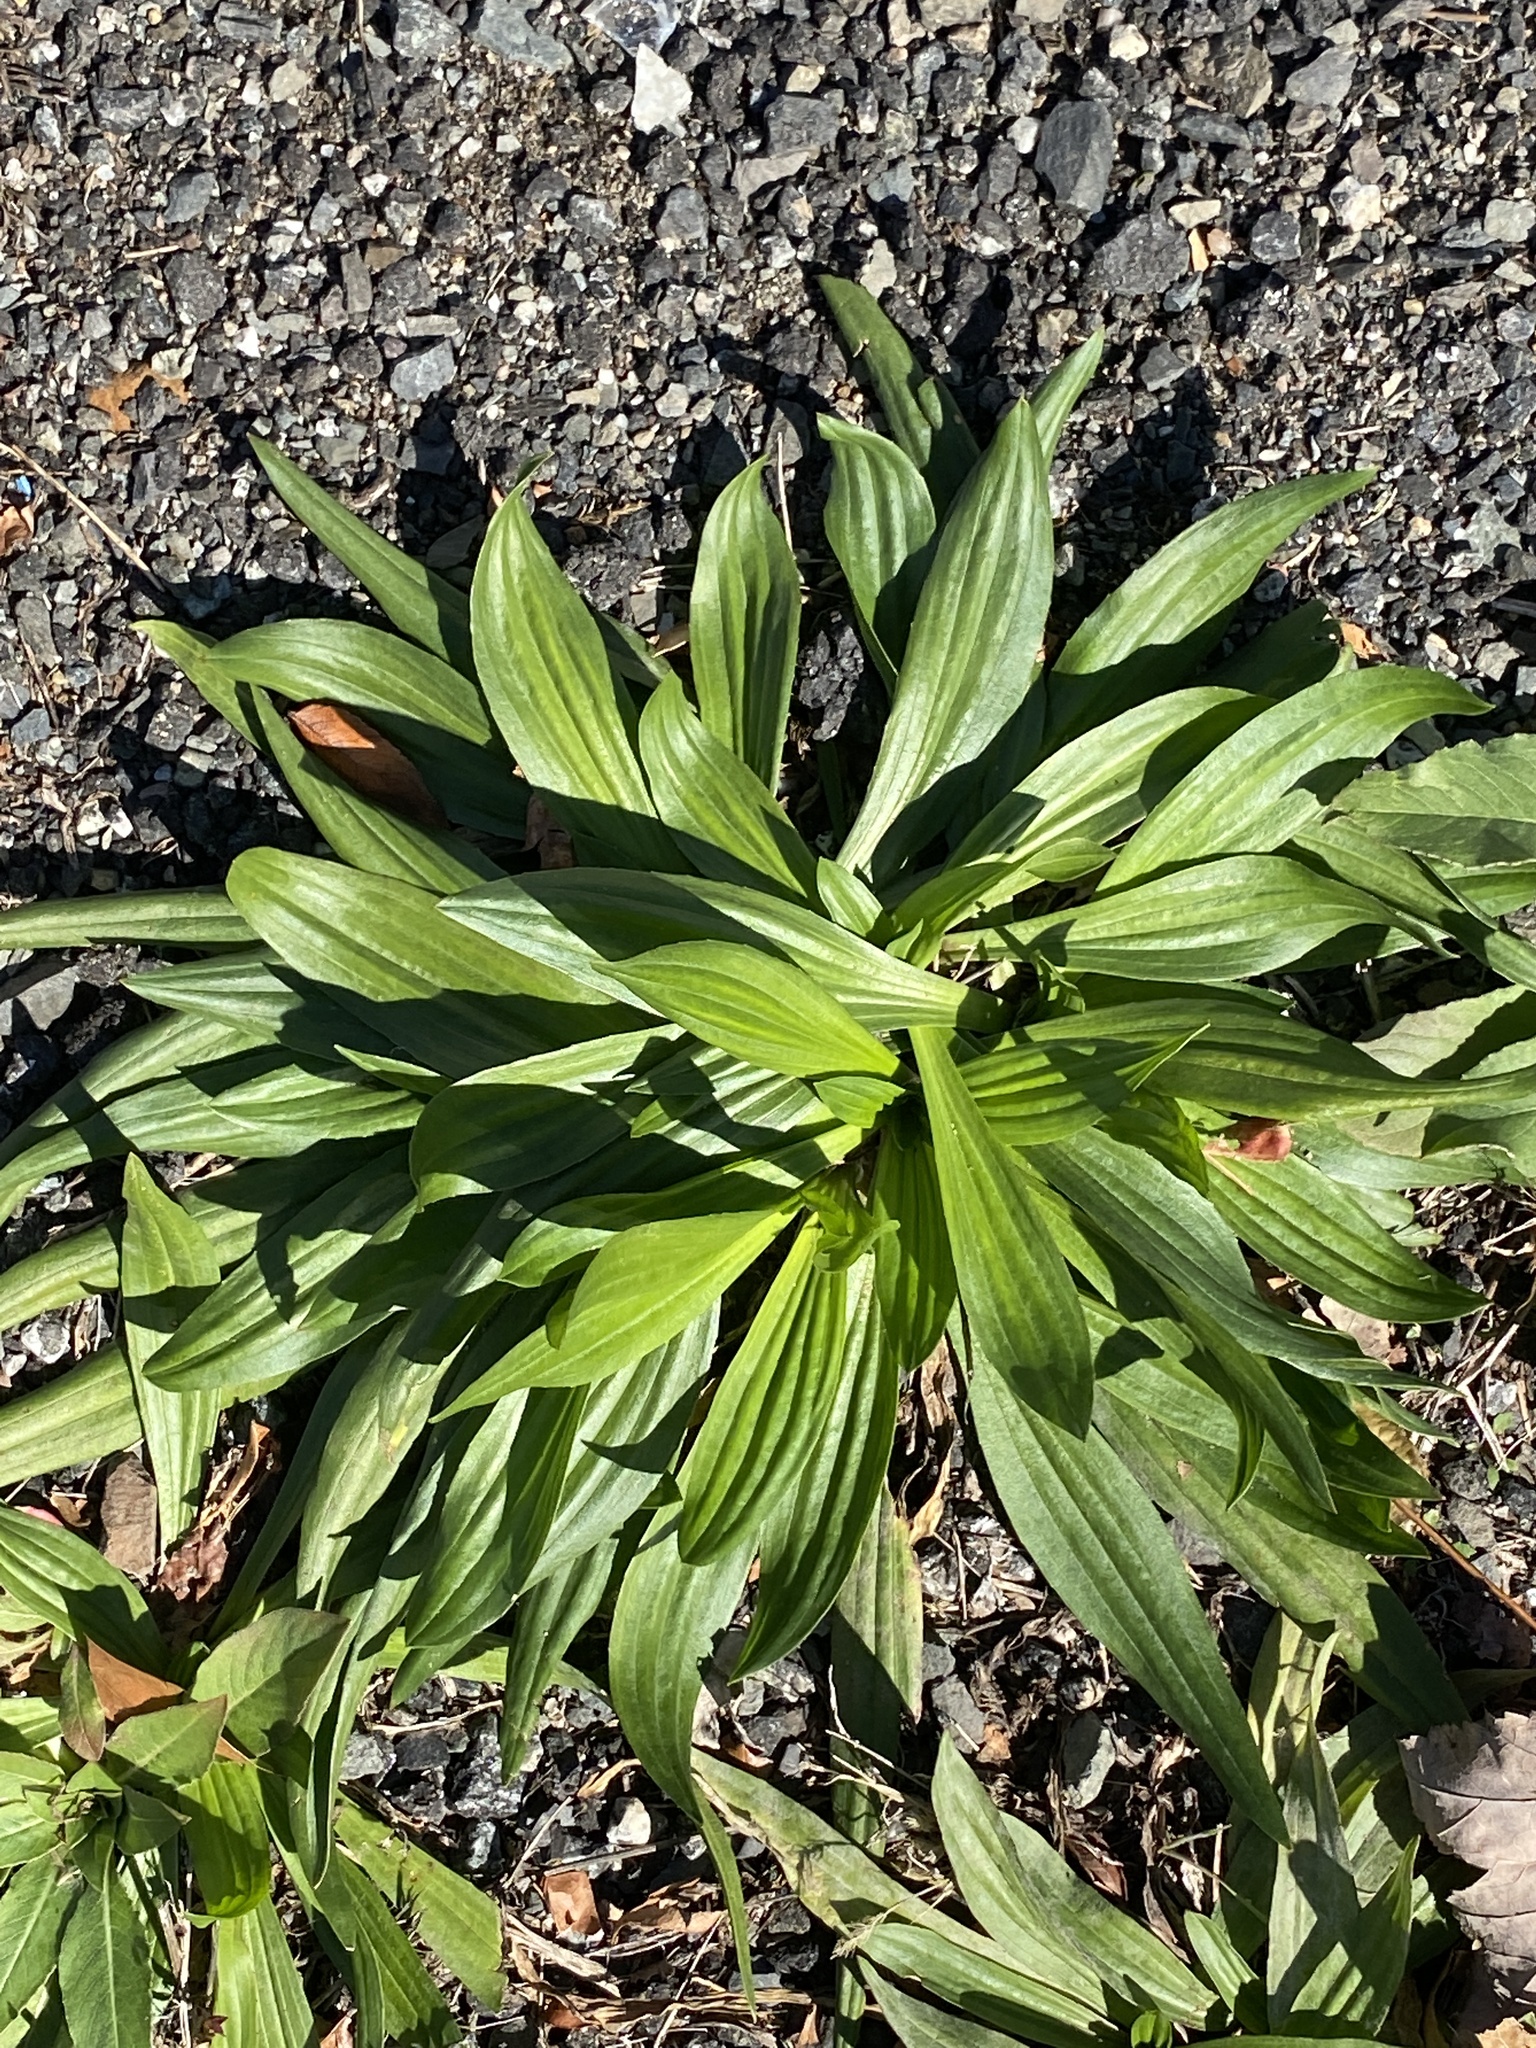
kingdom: Plantae
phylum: Tracheophyta
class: Magnoliopsida
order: Lamiales
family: Plantaginaceae
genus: Plantago
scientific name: Plantago lanceolata
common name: Ribwort plantain
